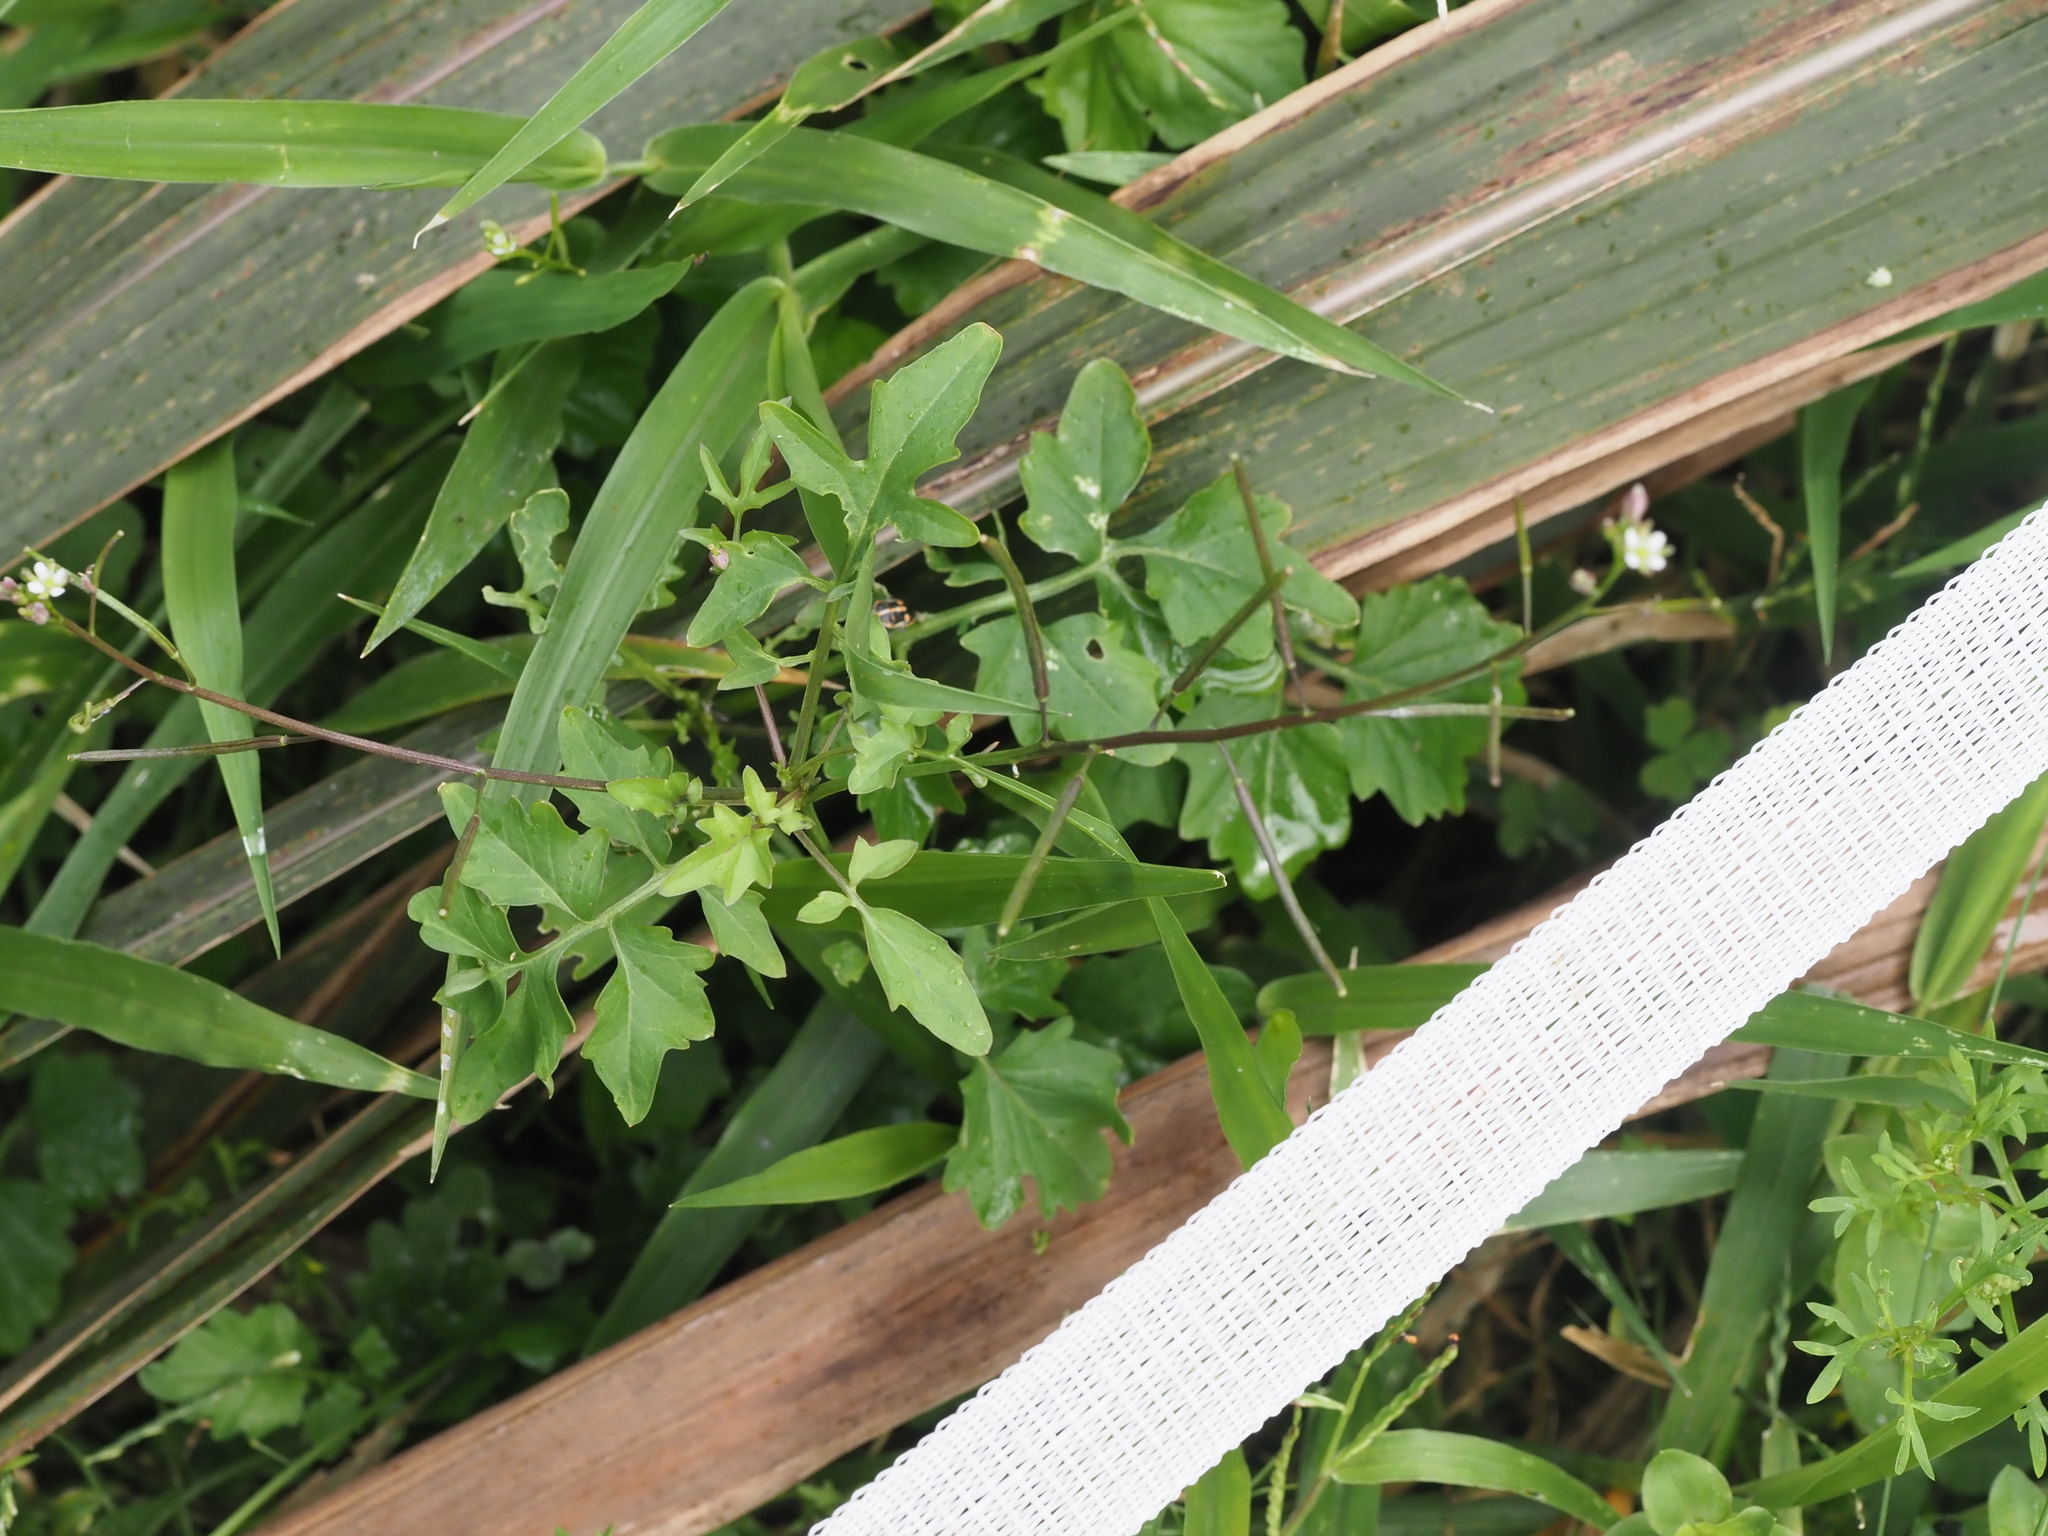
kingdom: Plantae
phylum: Tracheophyta
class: Magnoliopsida
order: Brassicales
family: Brassicaceae
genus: Rorippa
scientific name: Rorippa sarmentosa
